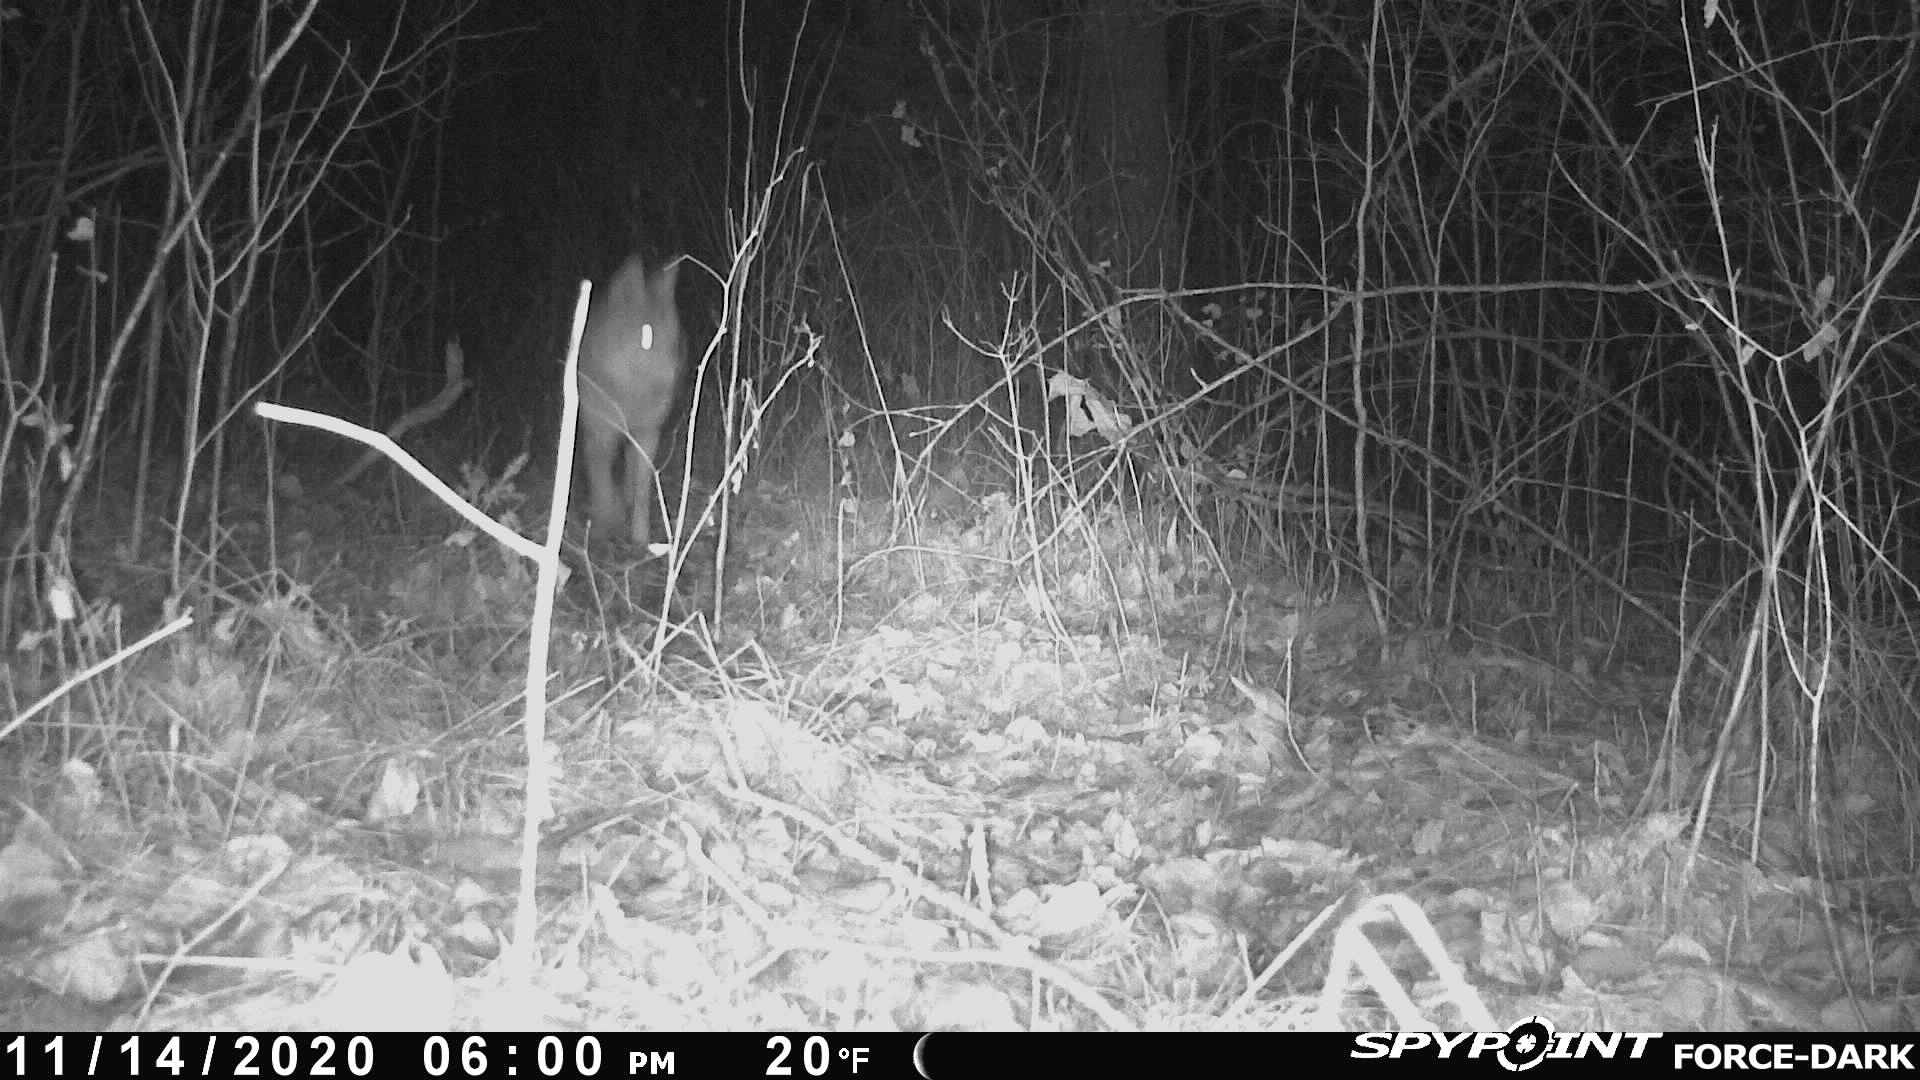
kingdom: Animalia
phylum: Chordata
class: Mammalia
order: Carnivora
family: Canidae
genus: Canis
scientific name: Canis latrans
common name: Coyote
